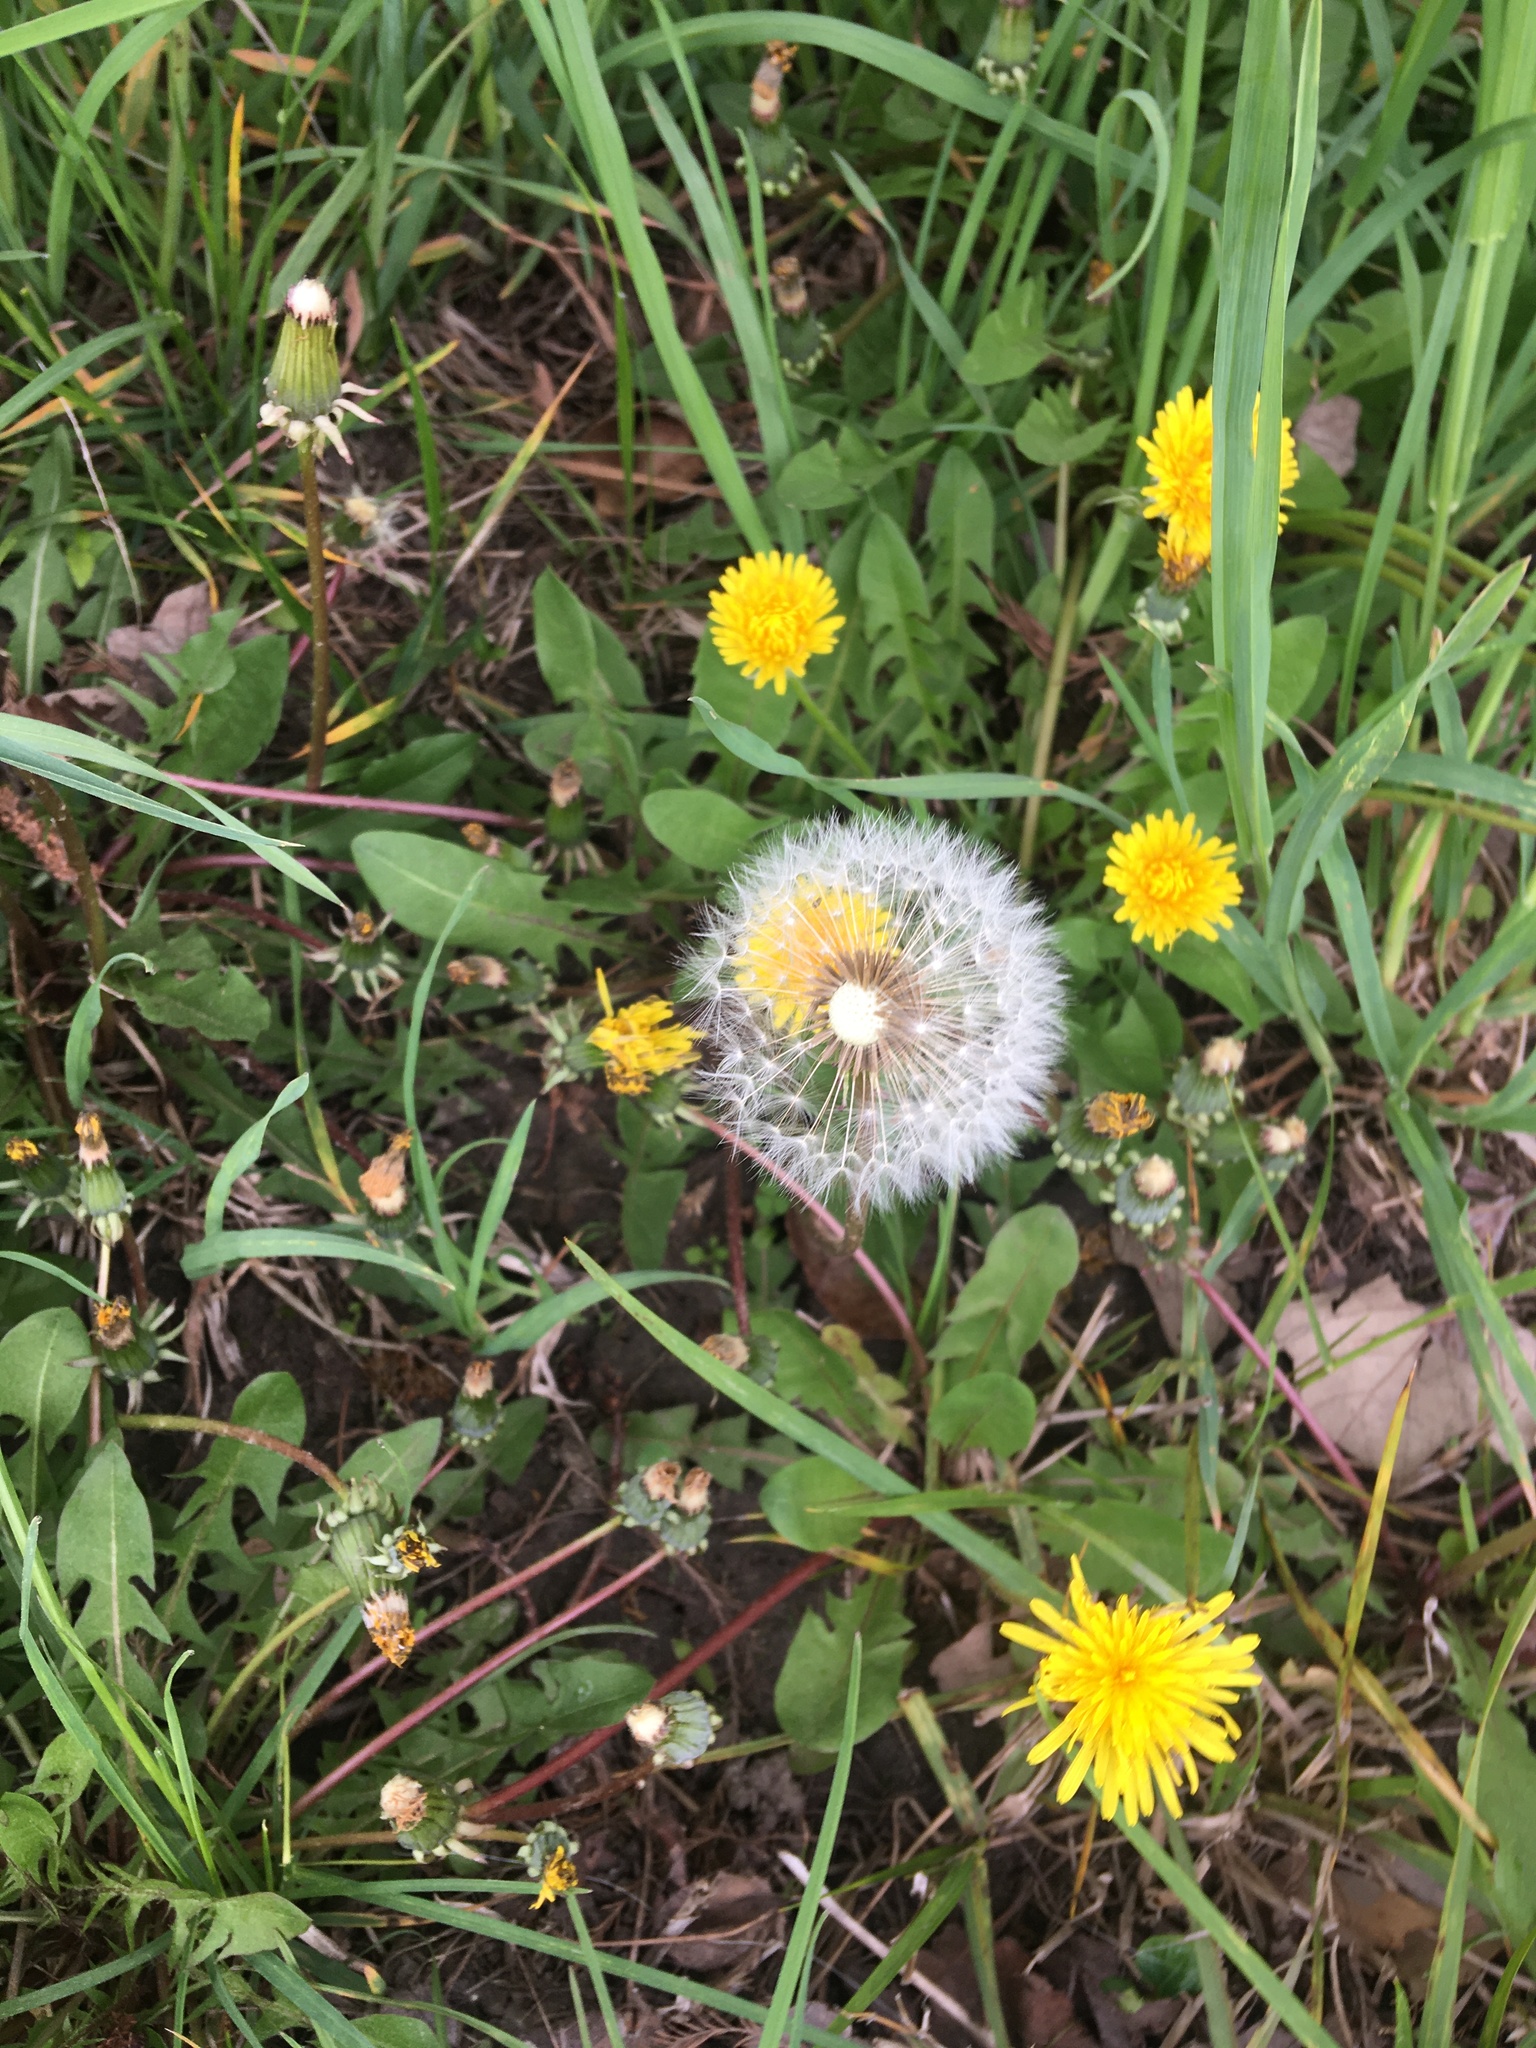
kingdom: Plantae
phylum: Tracheophyta
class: Magnoliopsida
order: Asterales
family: Asteraceae
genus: Taraxacum
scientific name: Taraxacum officinale
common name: Common dandelion
